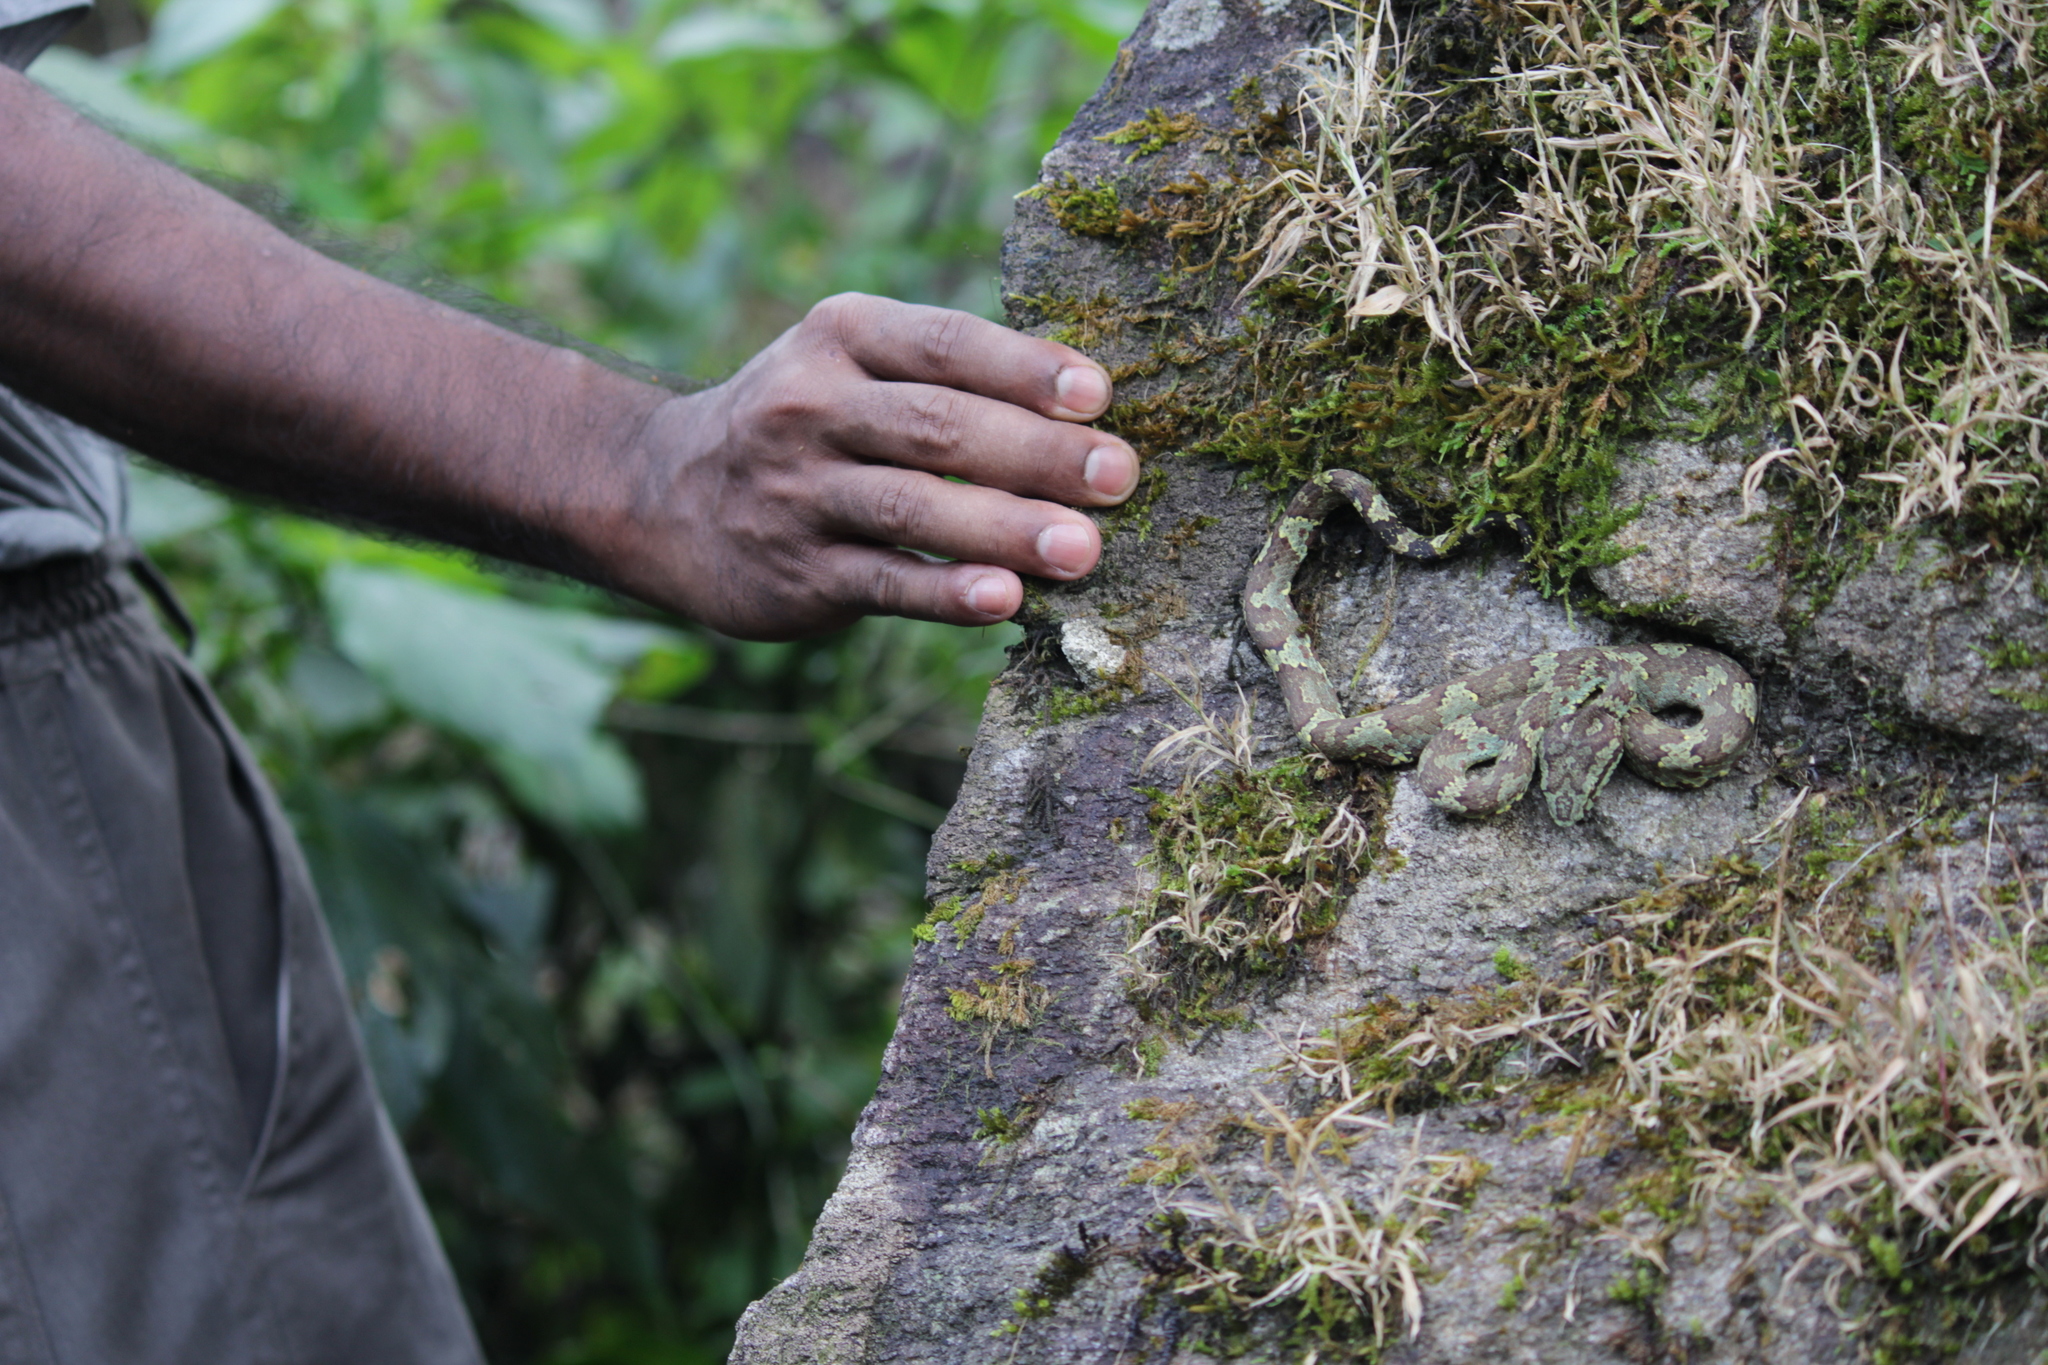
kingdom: Animalia
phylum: Chordata
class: Squamata
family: Viperidae
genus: Craspedocephalus
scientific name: Craspedocephalus malabaricus
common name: Malabarian pit viper
